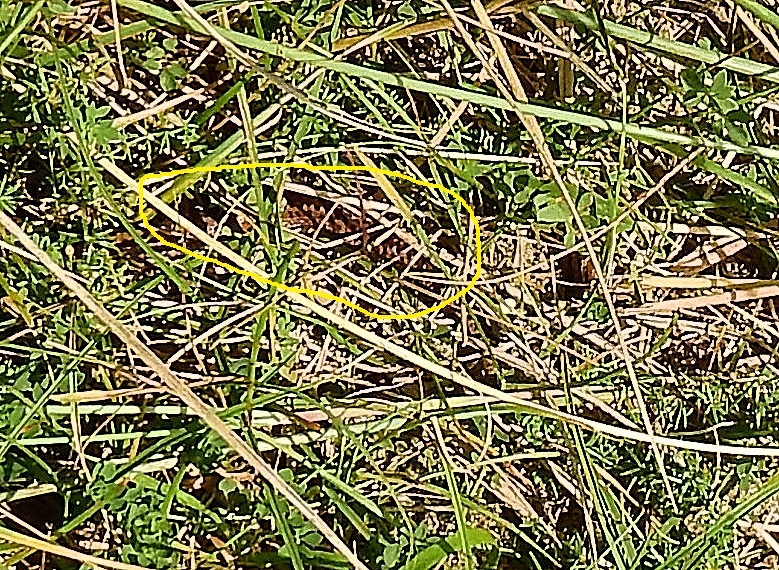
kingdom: Animalia
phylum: Chordata
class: Squamata
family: Viperidae
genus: Vipera
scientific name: Vipera berus
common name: Adder
